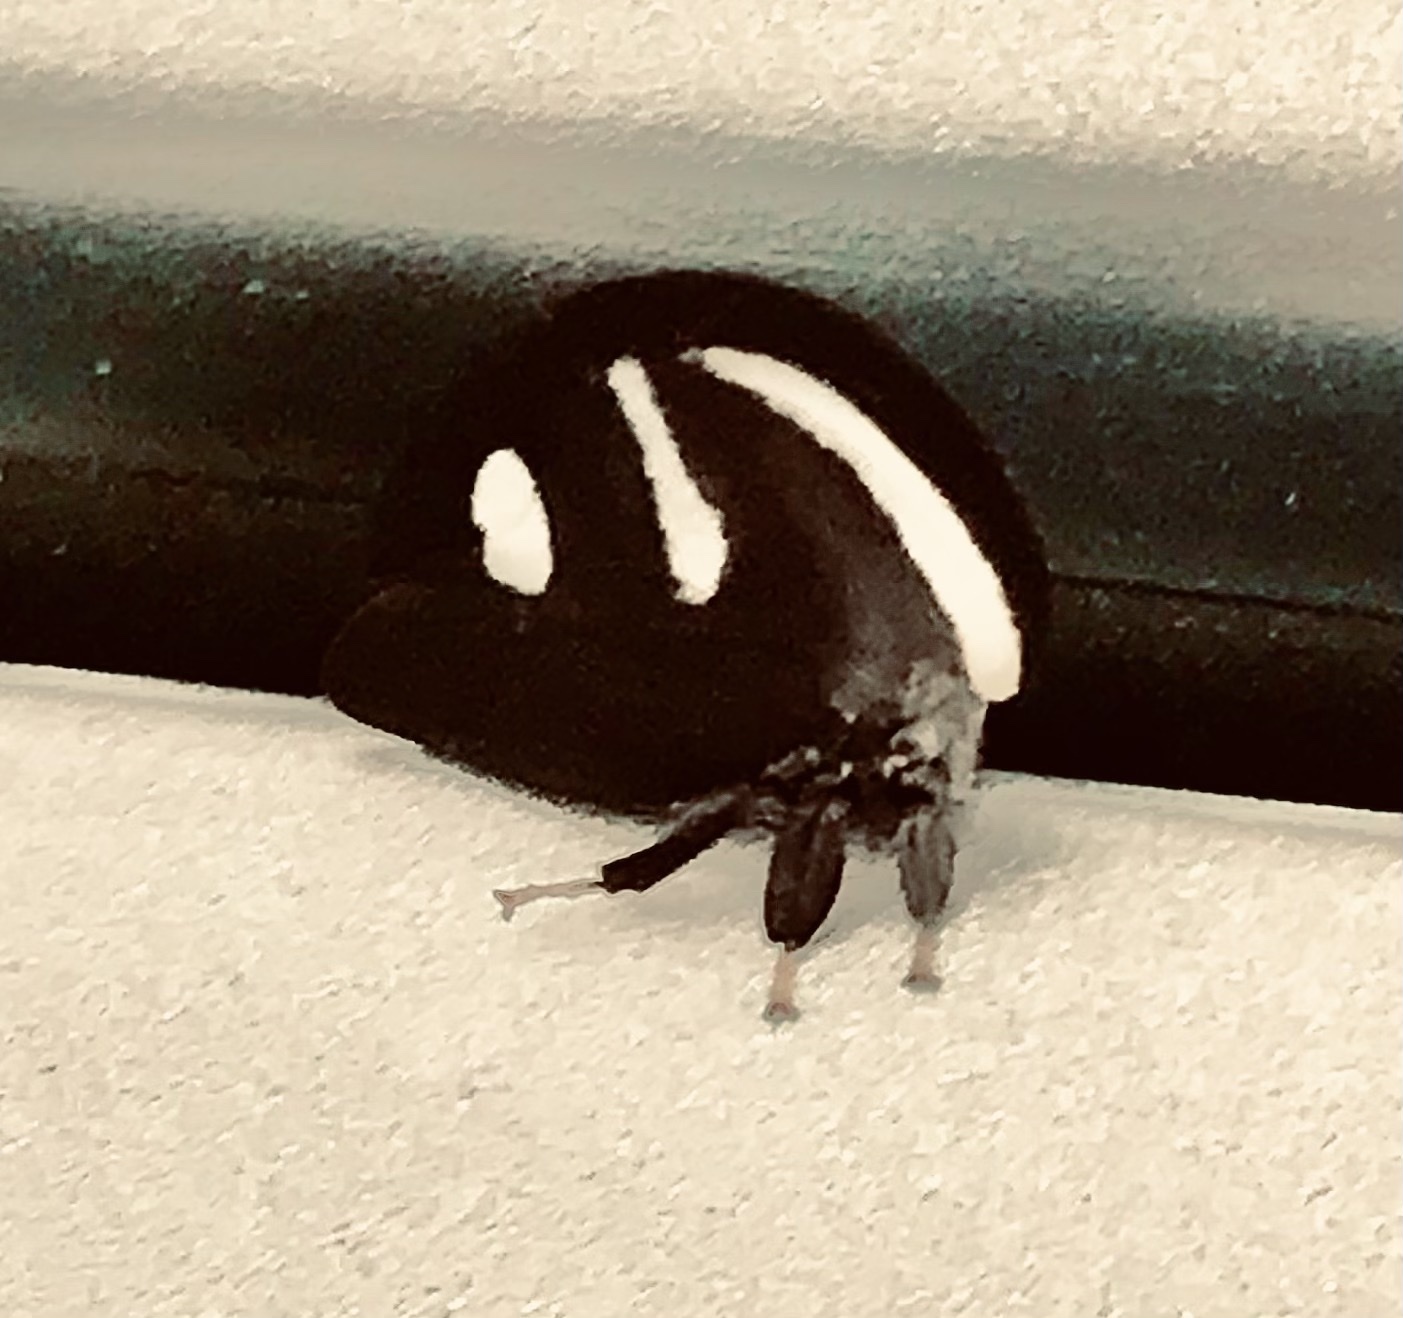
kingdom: Animalia
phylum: Arthropoda
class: Insecta
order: Hemiptera
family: Membracidae
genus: Membracis
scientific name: Membracis
